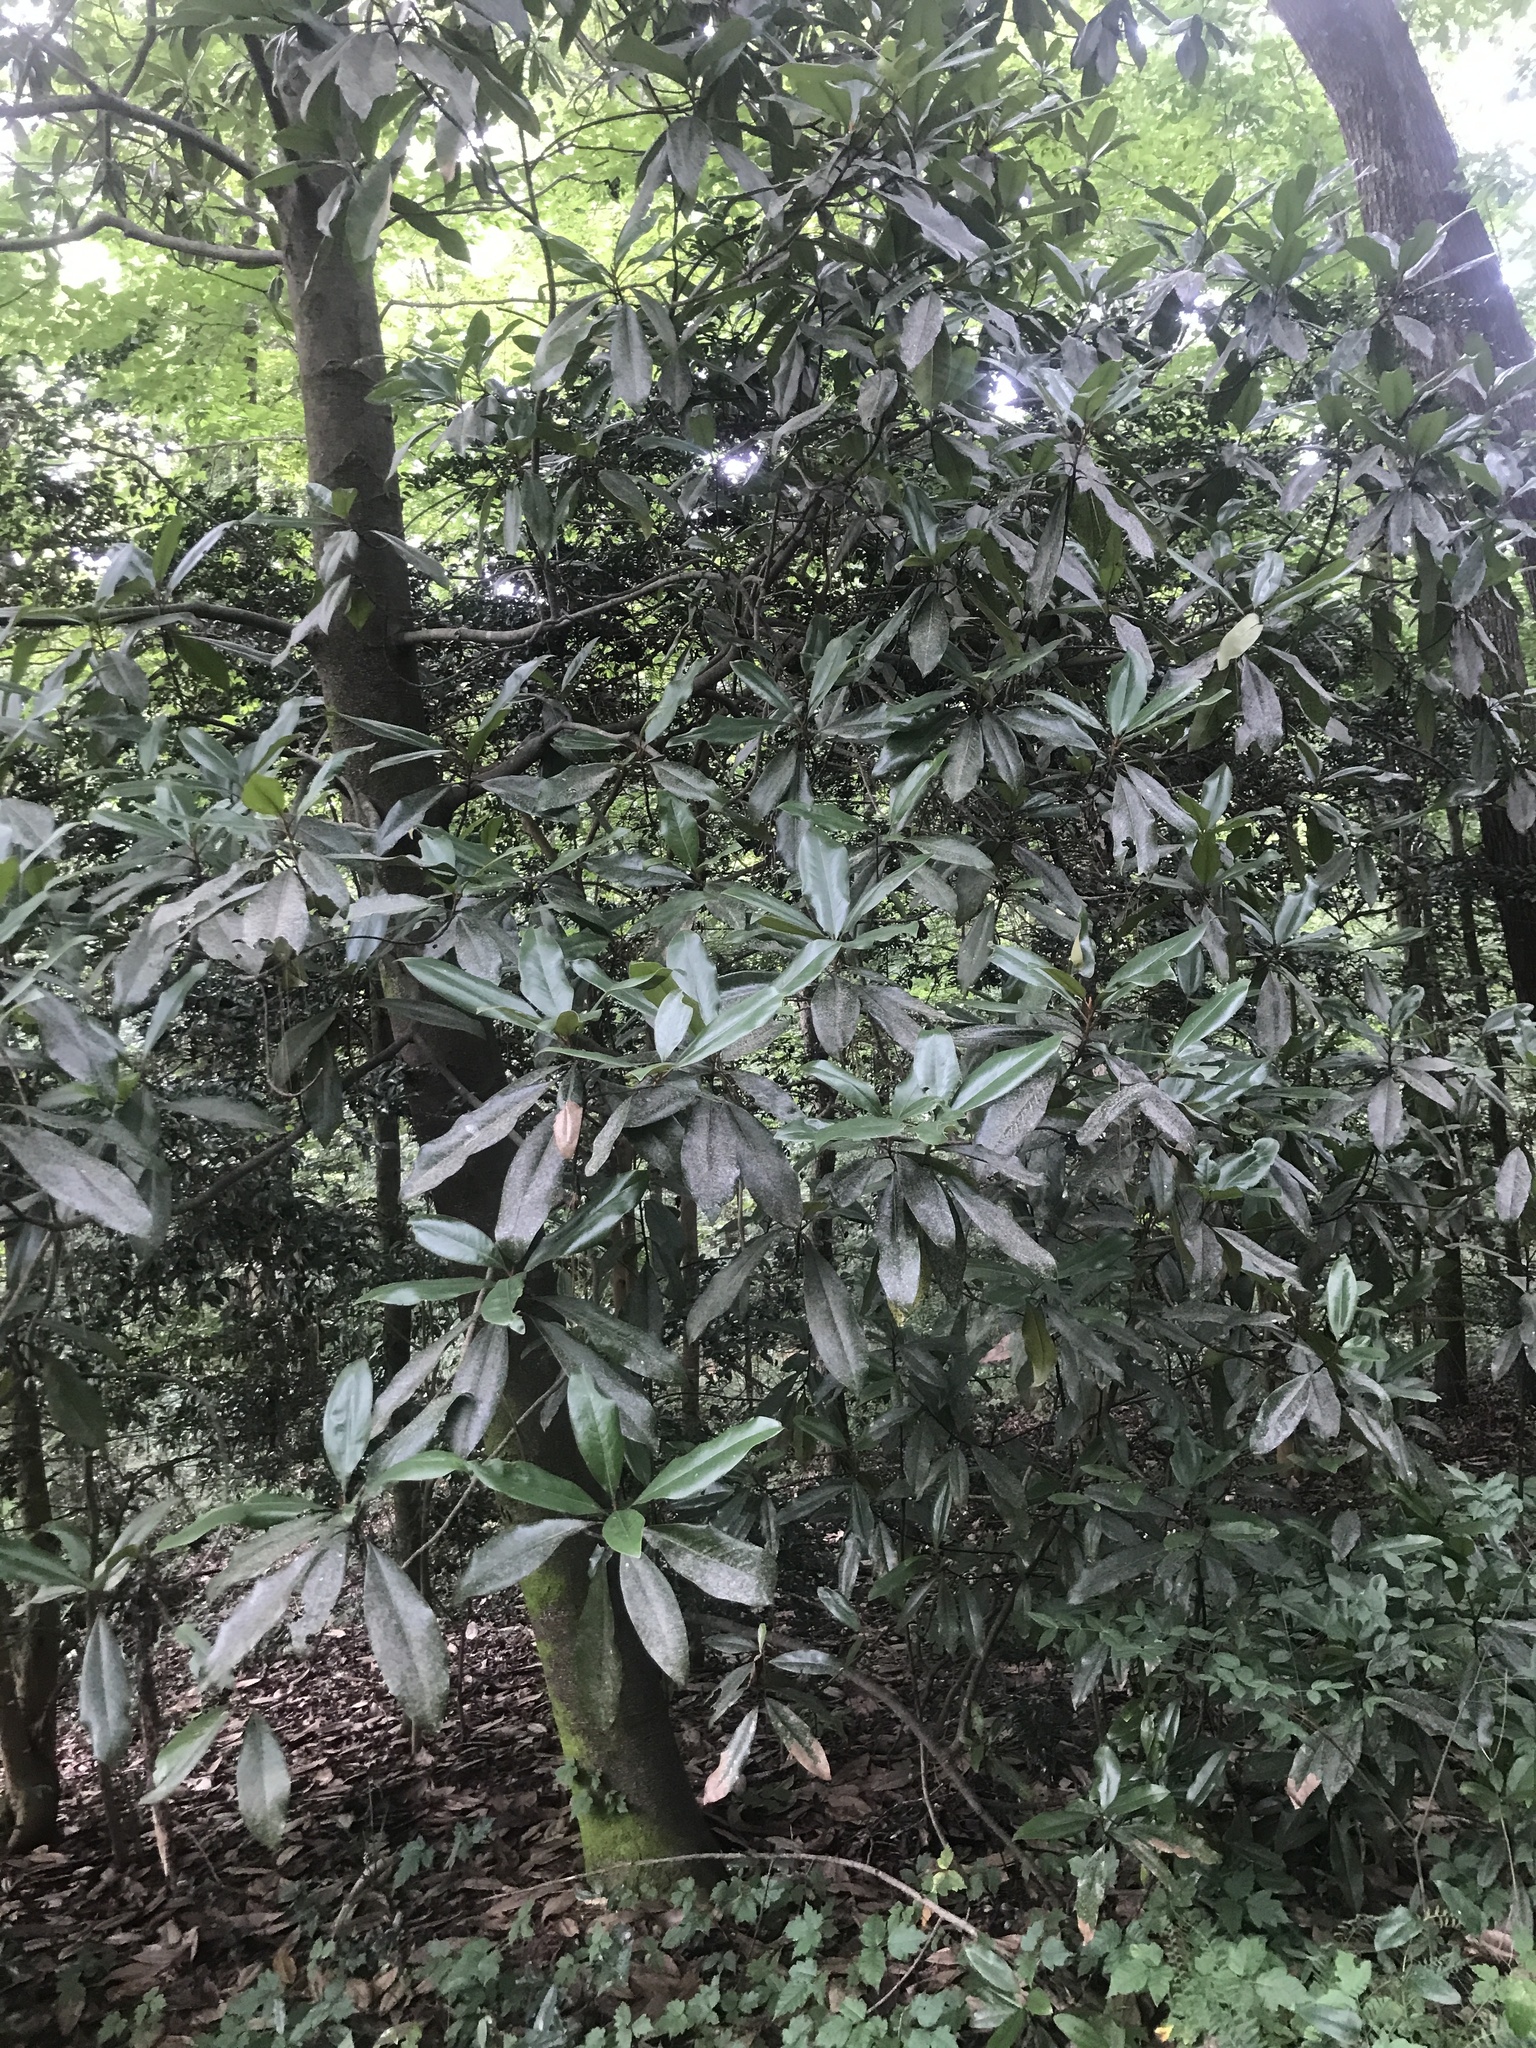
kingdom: Plantae
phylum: Tracheophyta
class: Magnoliopsida
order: Magnoliales
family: Magnoliaceae
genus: Magnolia
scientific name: Magnolia grandiflora
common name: Southern magnolia
